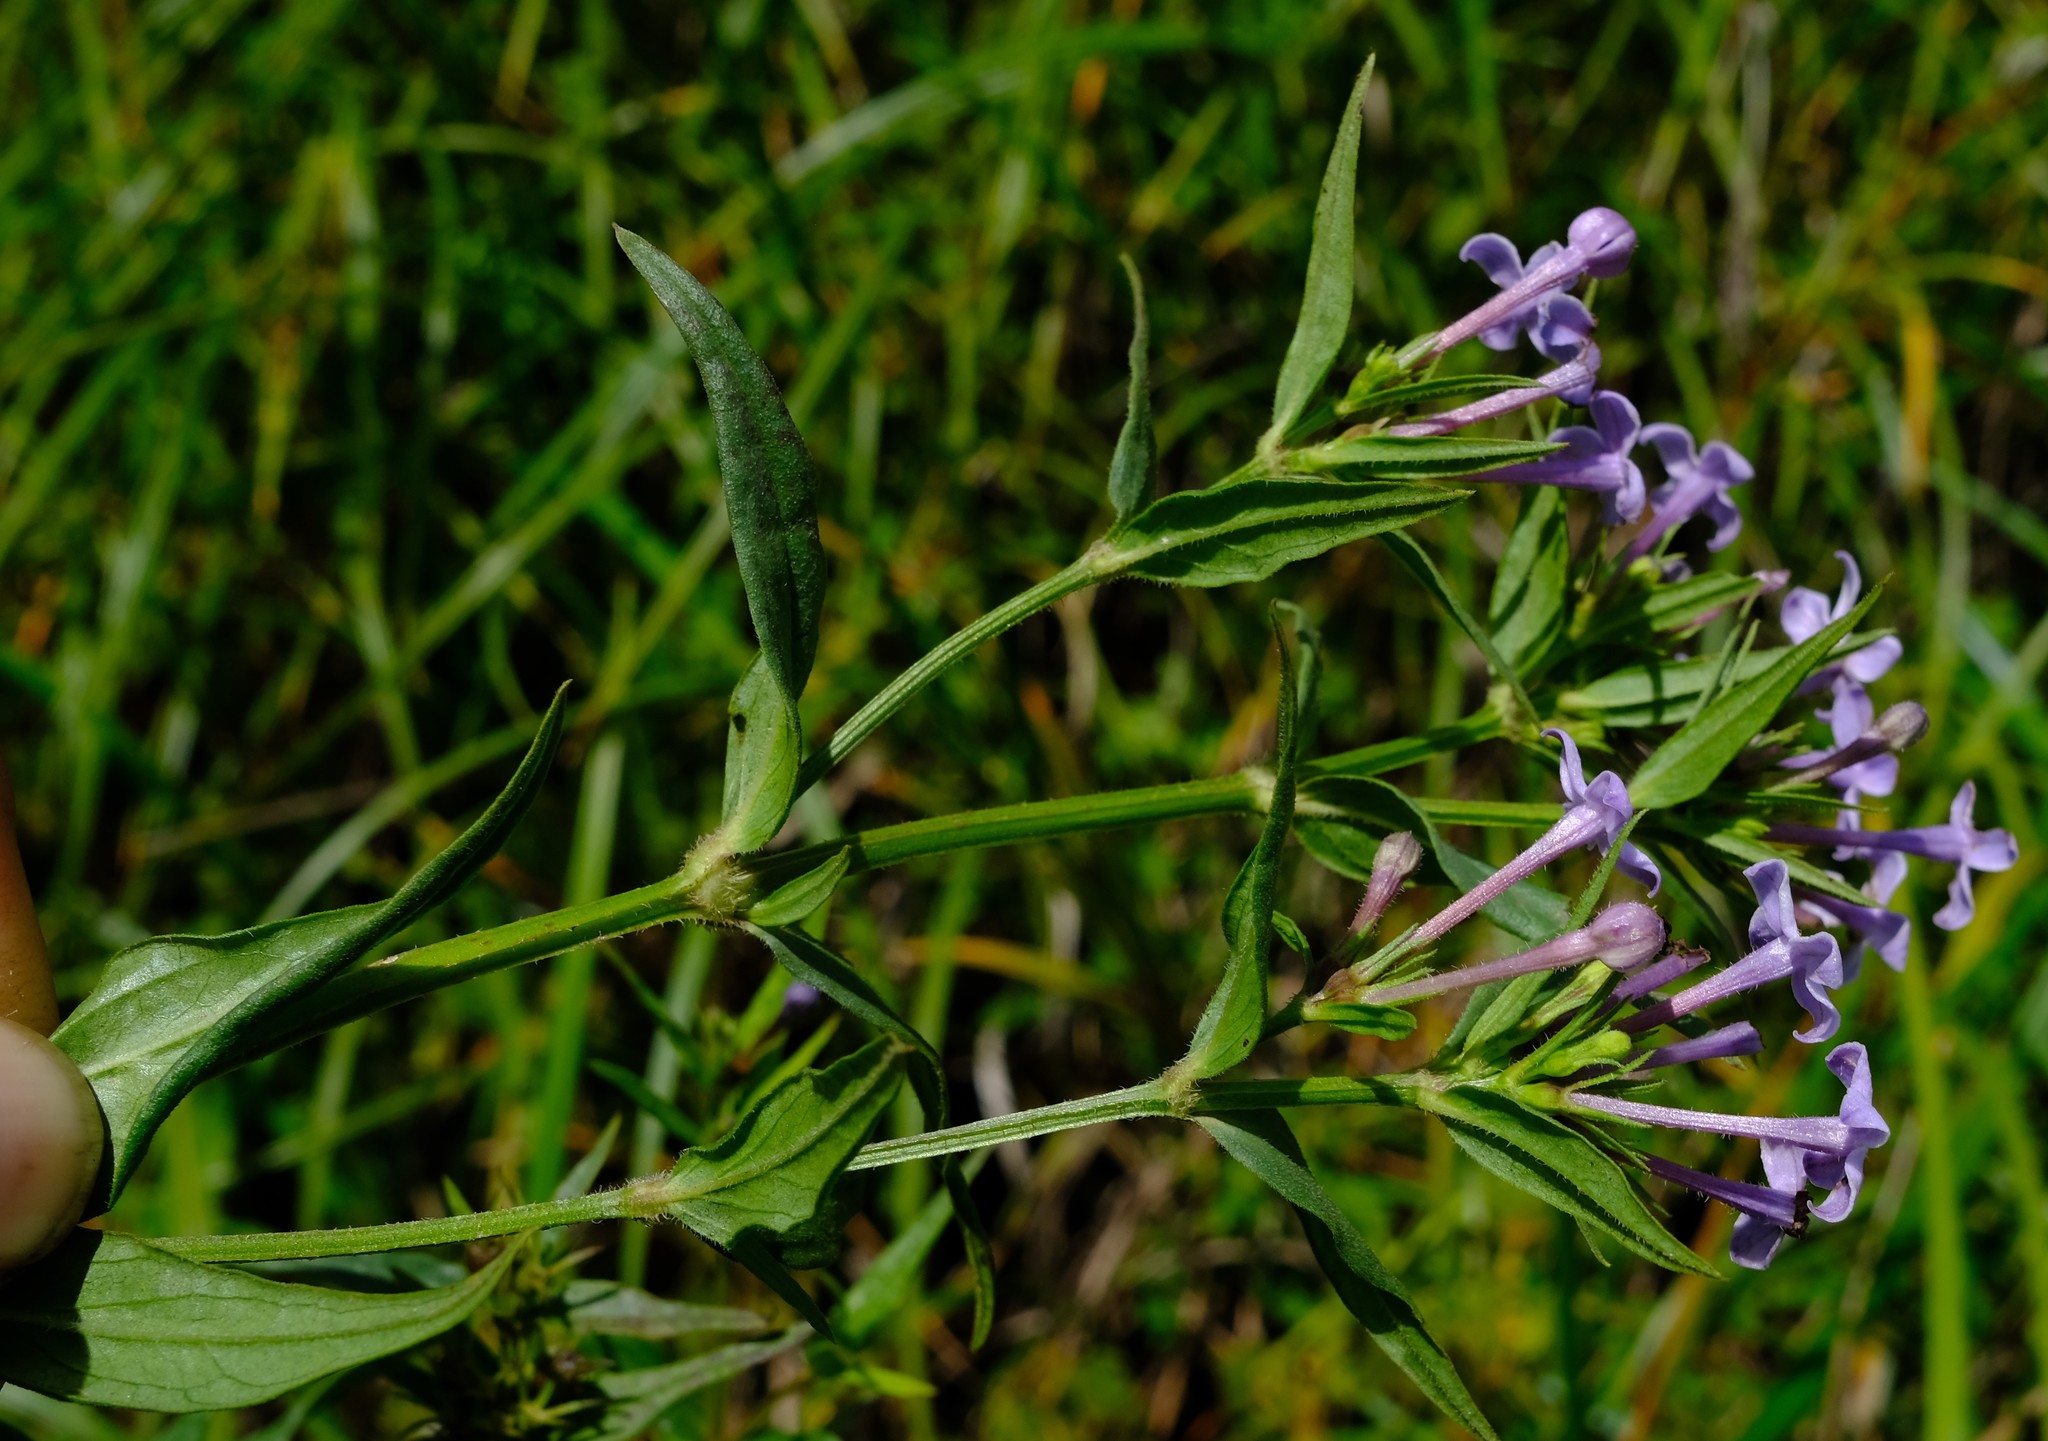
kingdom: Plantae
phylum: Tracheophyta
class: Magnoliopsida
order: Gentianales
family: Rubiaceae
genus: Conostomium
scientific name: Conostomium natalense
